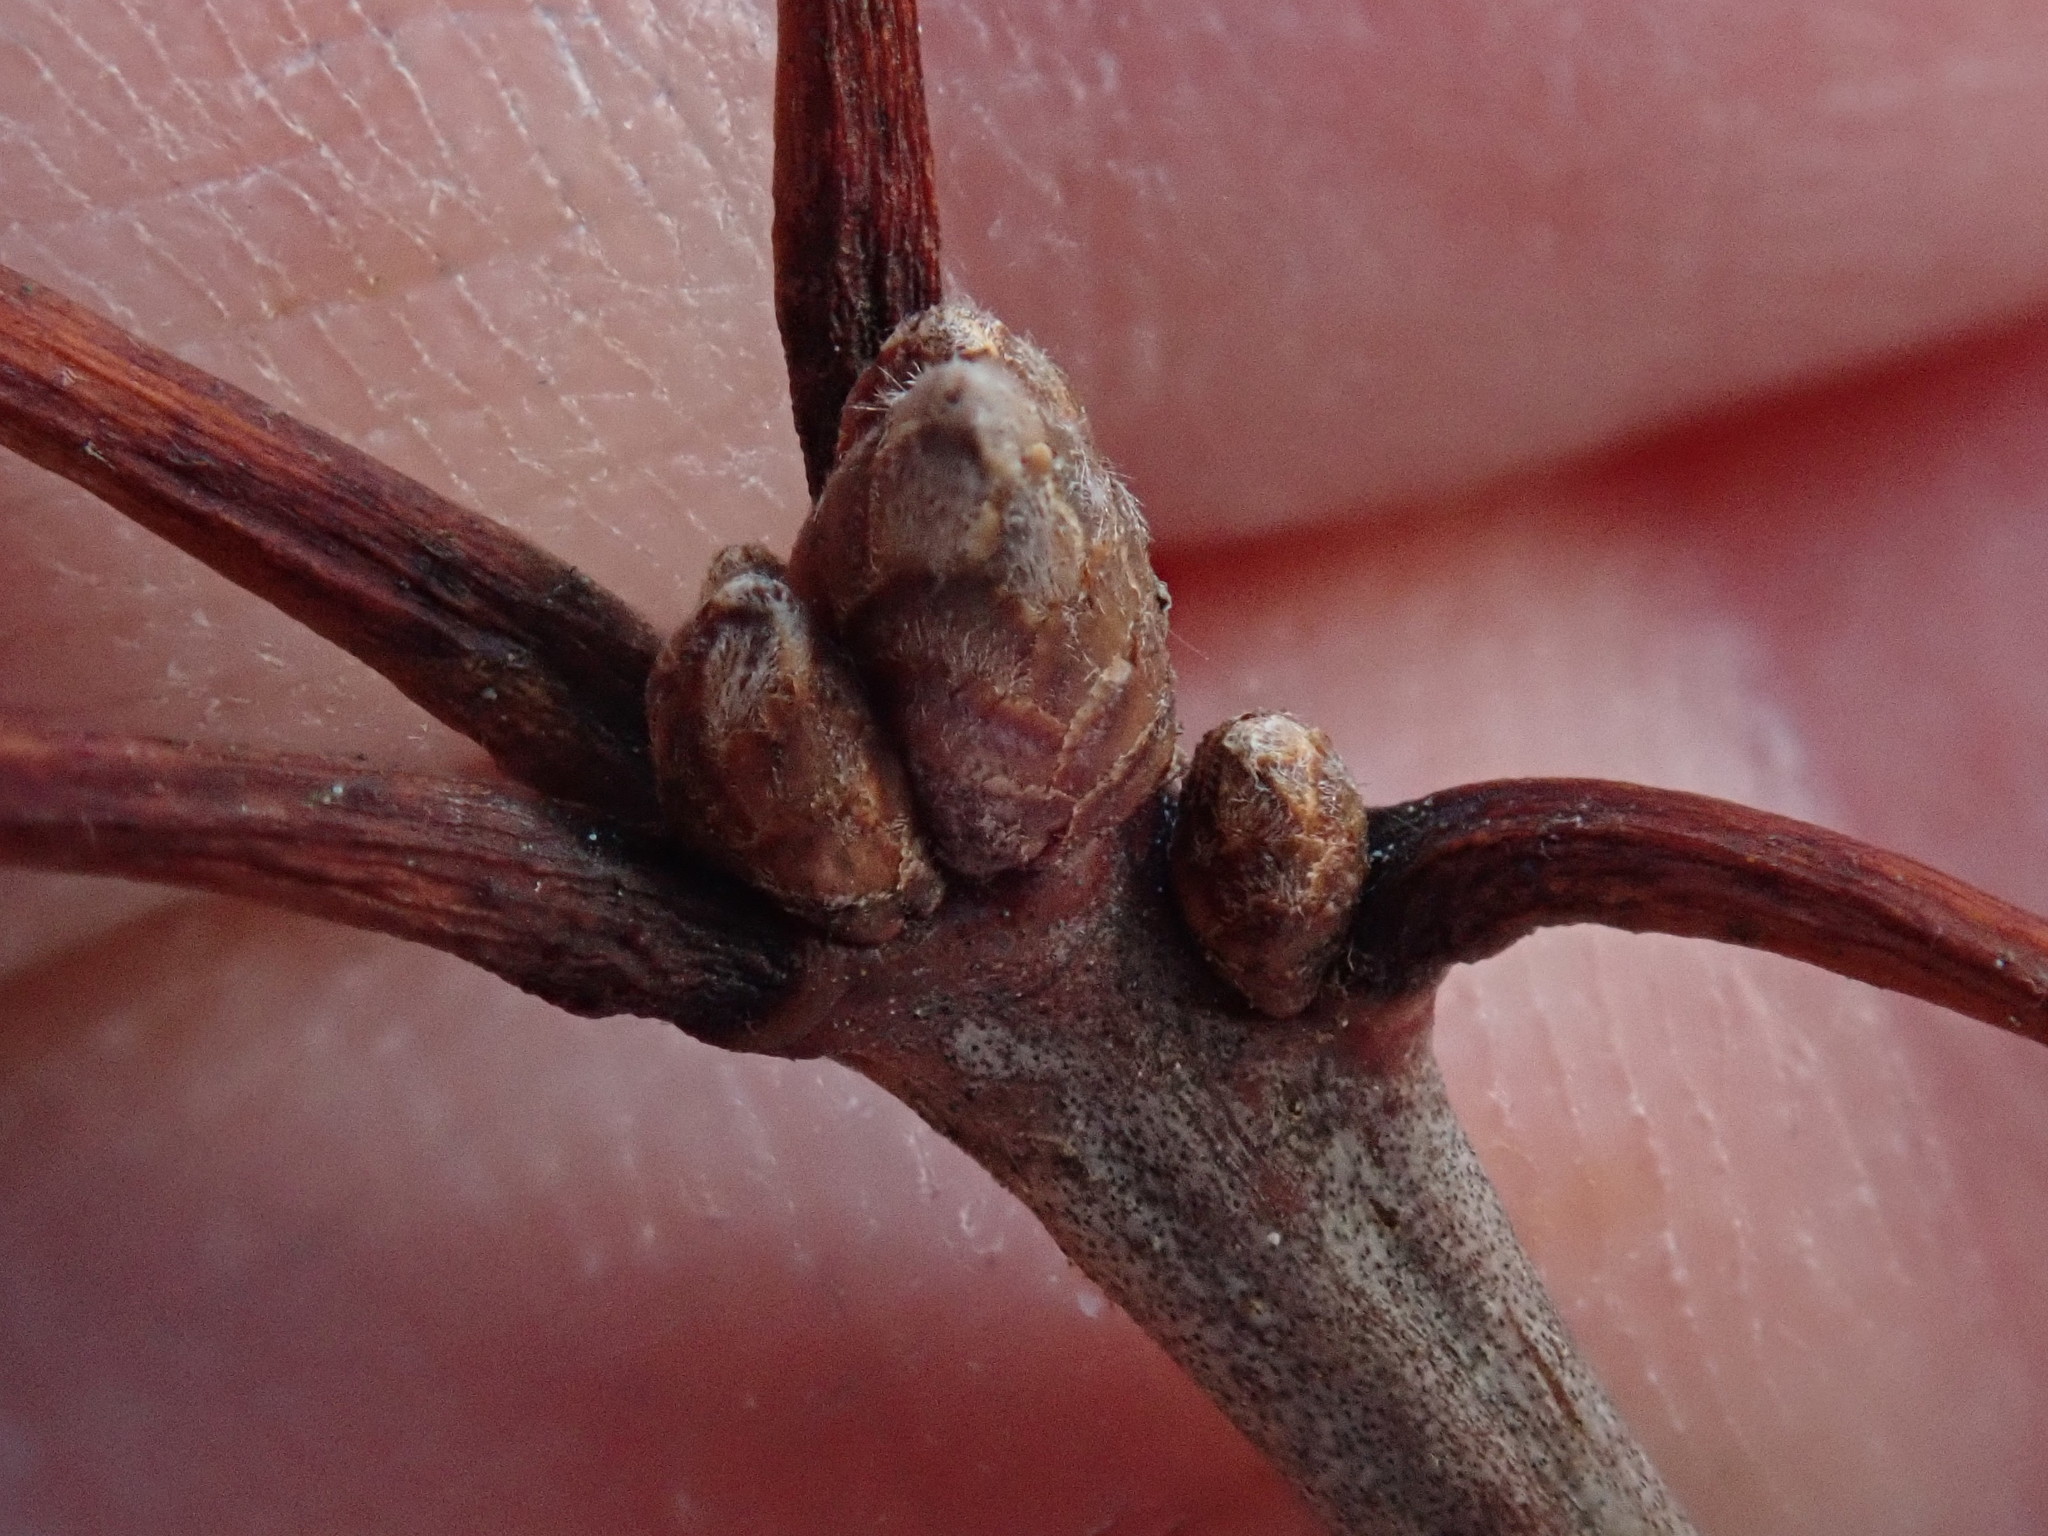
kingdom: Plantae
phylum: Tracheophyta
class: Magnoliopsida
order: Fagales
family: Fagaceae
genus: Quercus
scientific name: Quercus velutina
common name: Black oak
